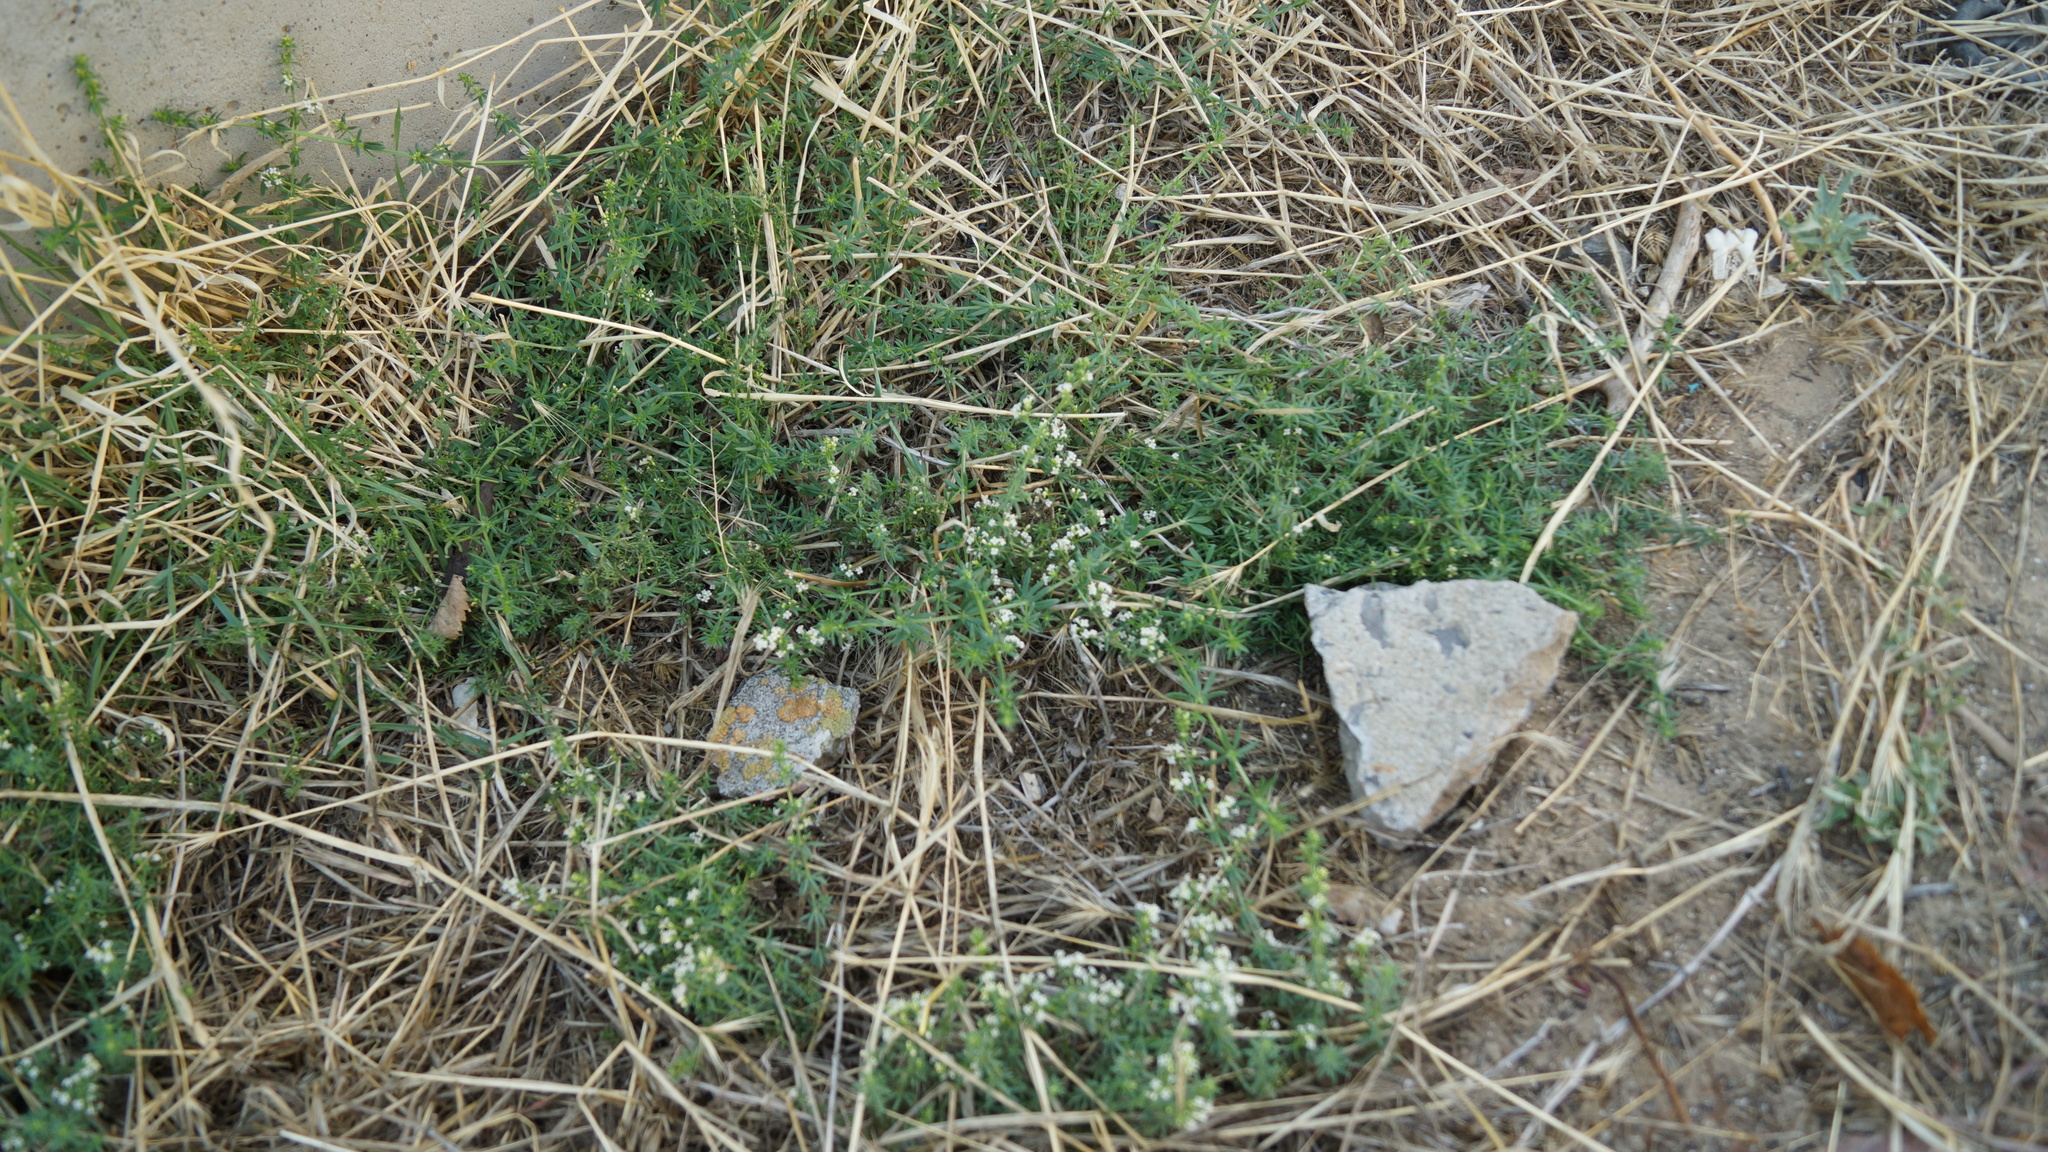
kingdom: Plantae
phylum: Tracheophyta
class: Magnoliopsida
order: Gentianales
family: Rubiaceae
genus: Galium
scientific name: Galium humifusum
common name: Spreading bedstraw
